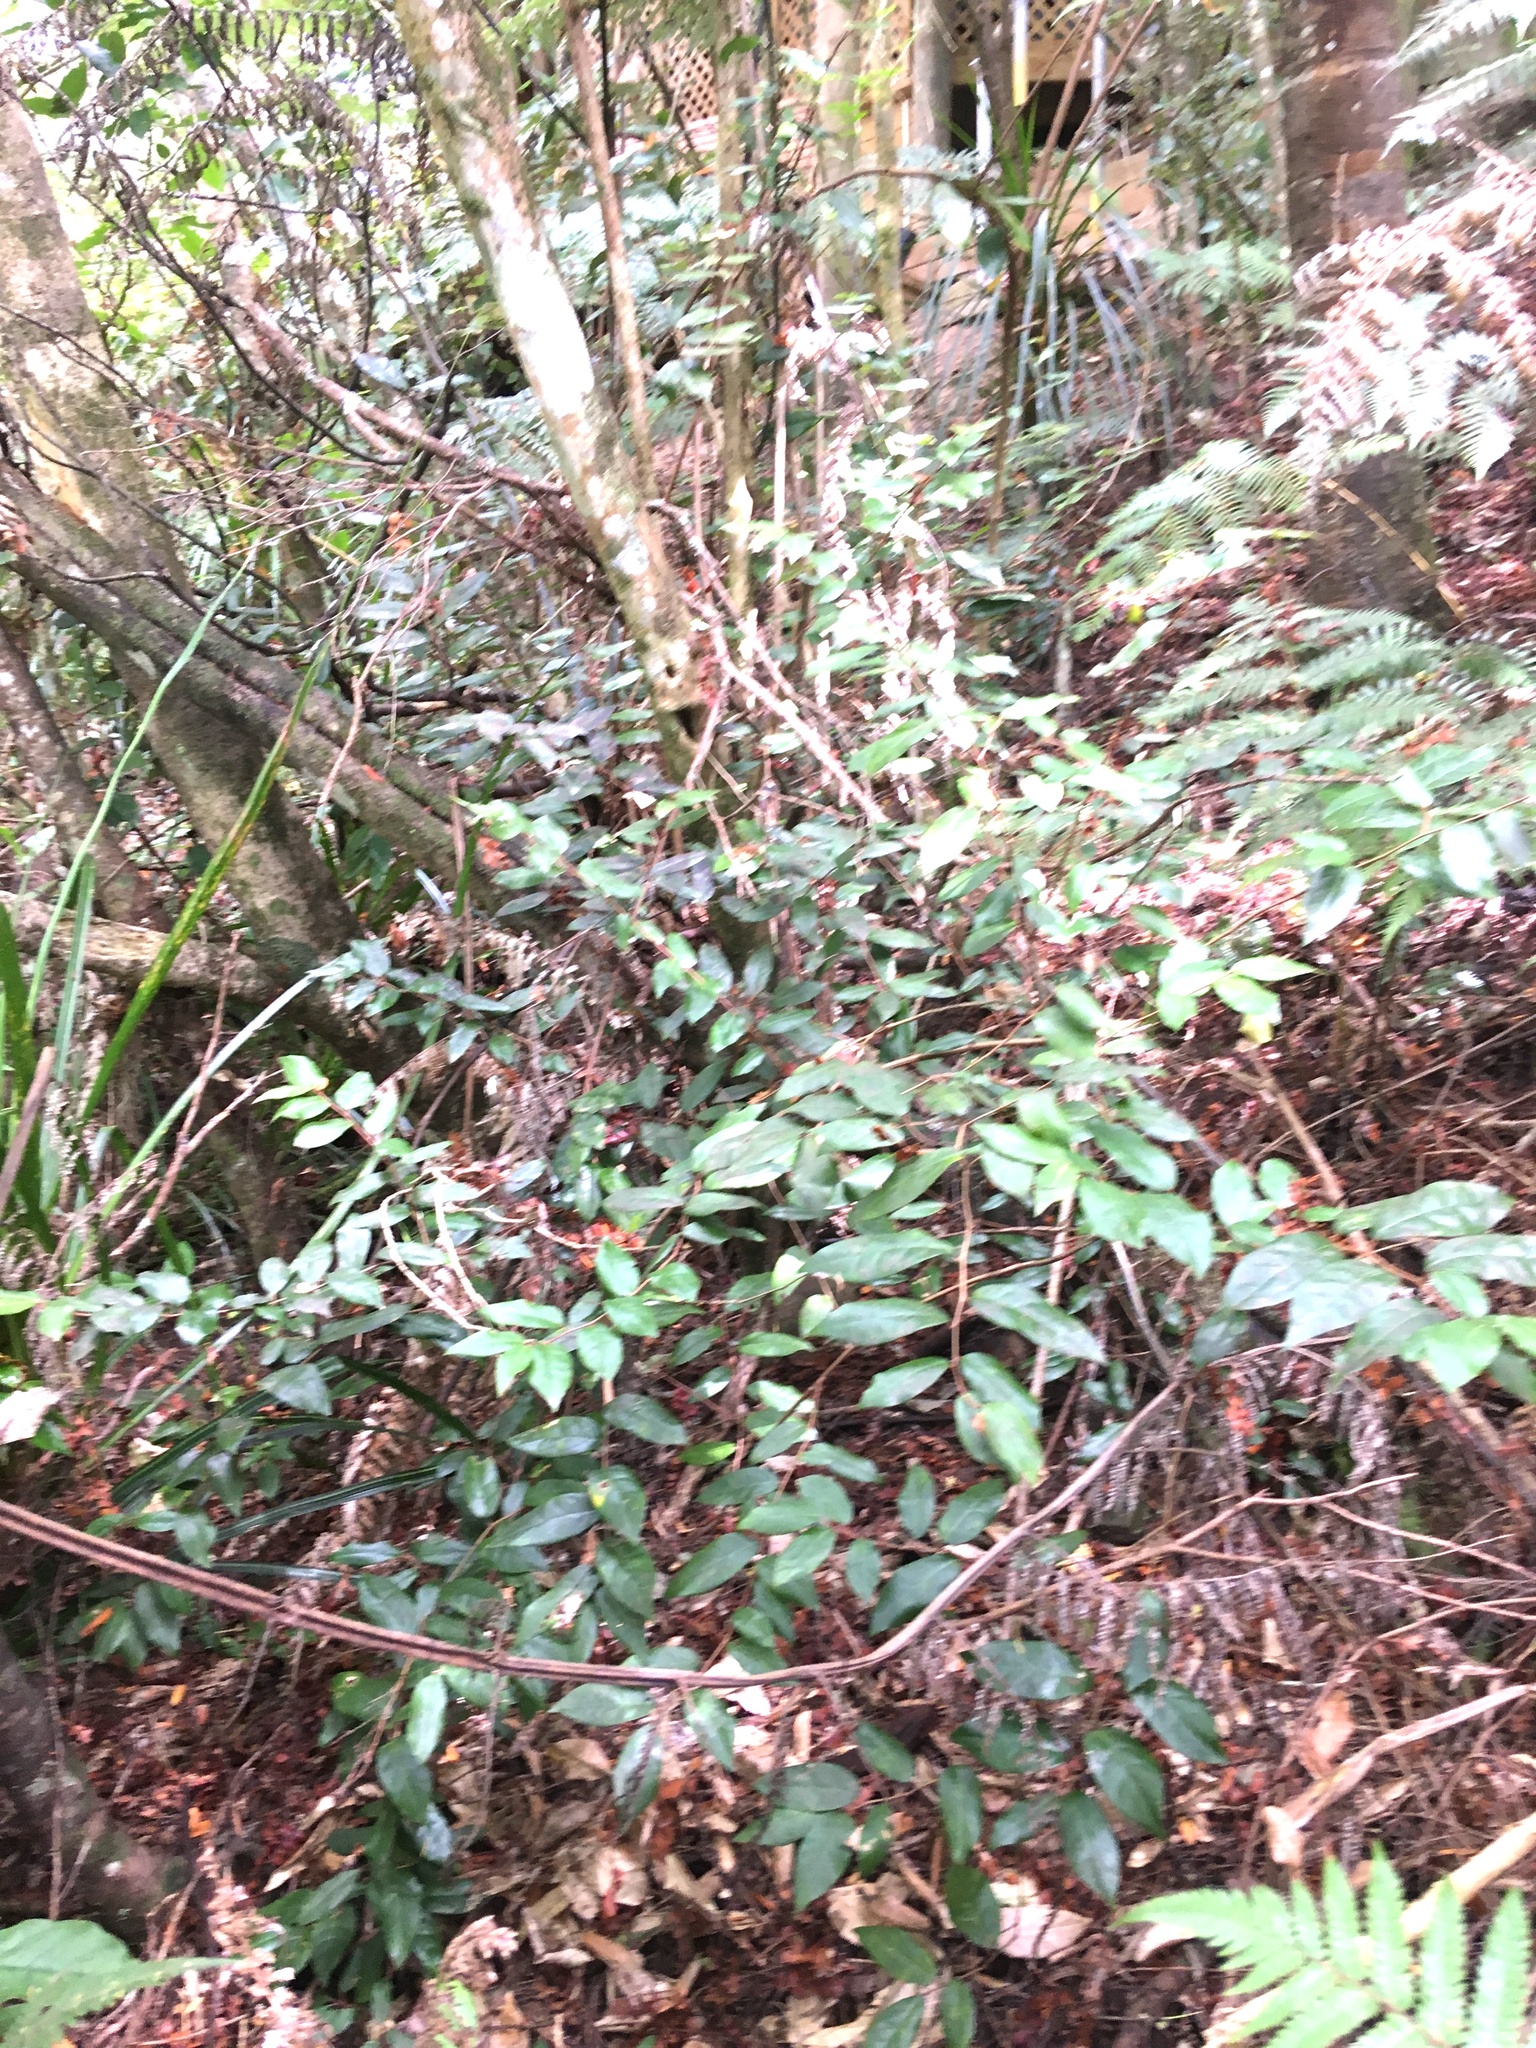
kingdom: Plantae
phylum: Tracheophyta
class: Magnoliopsida
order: Rosales
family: Elaeagnaceae
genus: Elaeagnus
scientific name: Elaeagnus reflexa
